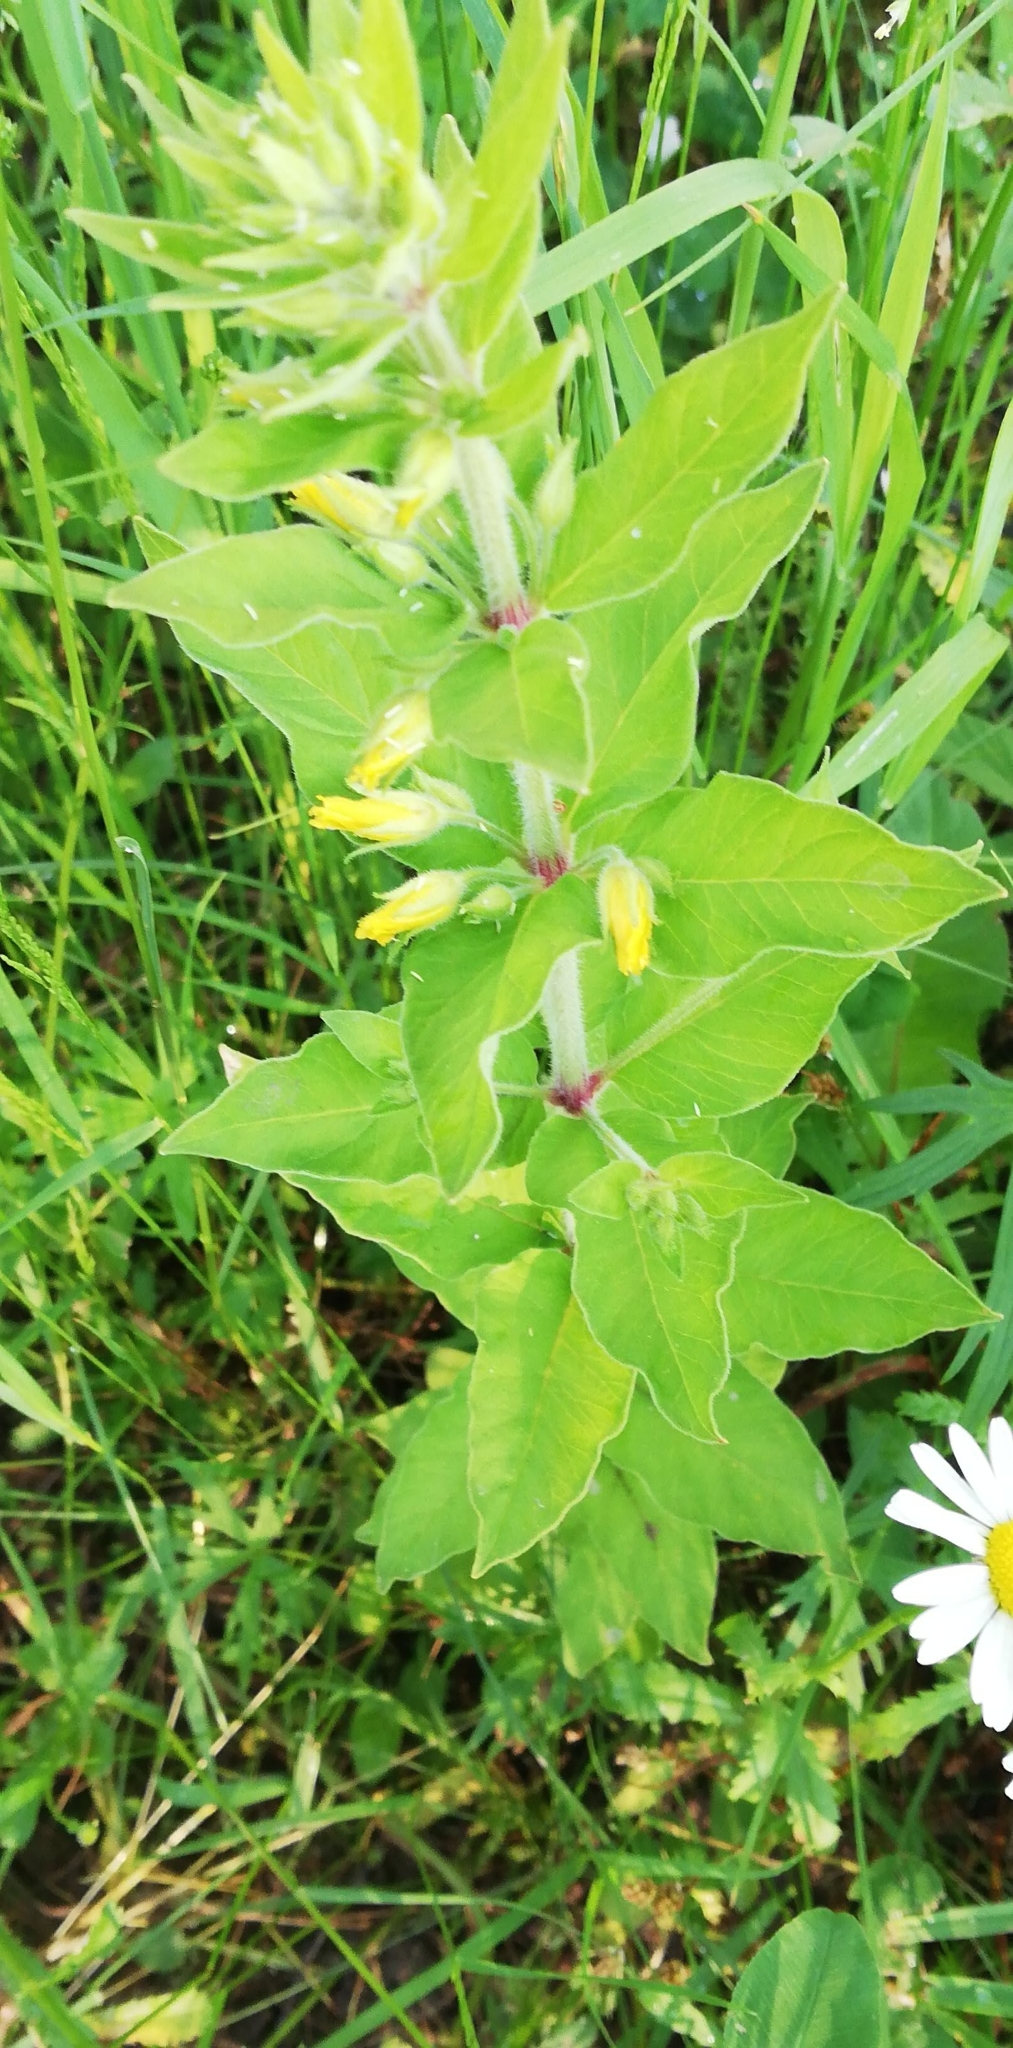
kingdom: Plantae
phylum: Tracheophyta
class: Magnoliopsida
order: Ericales
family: Primulaceae
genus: Lysimachia
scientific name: Lysimachia punctata
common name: Dotted loosestrife
